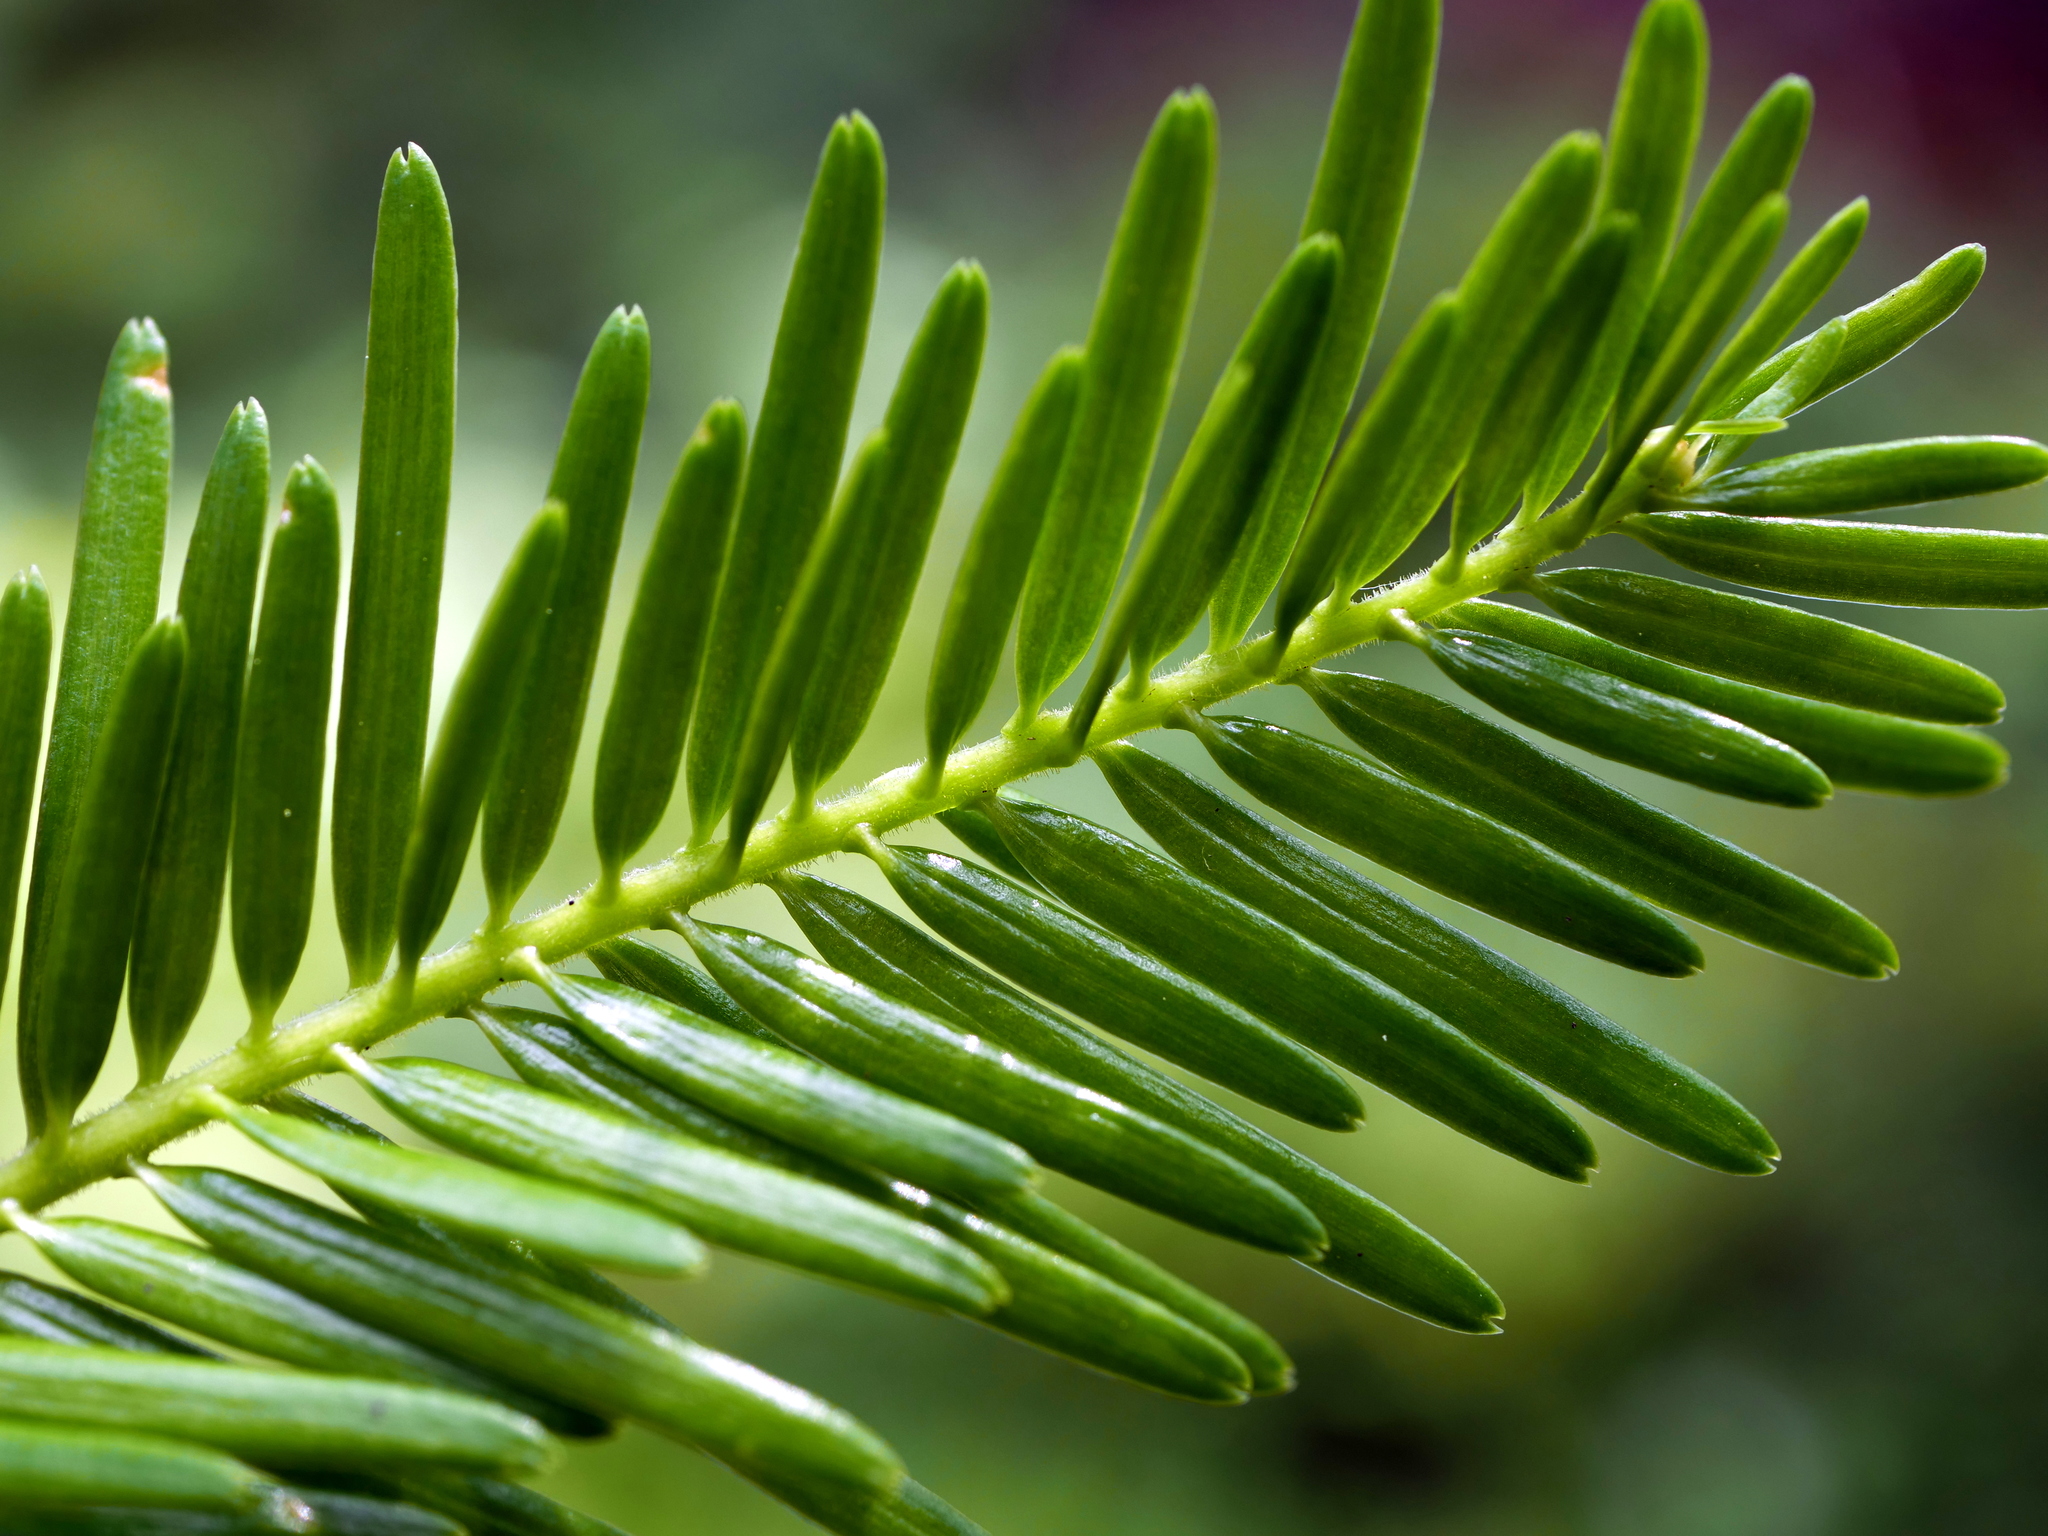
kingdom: Plantae
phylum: Tracheophyta
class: Pinopsida
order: Pinales
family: Pinaceae
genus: Abies
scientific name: Abies alba
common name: Silver fir
